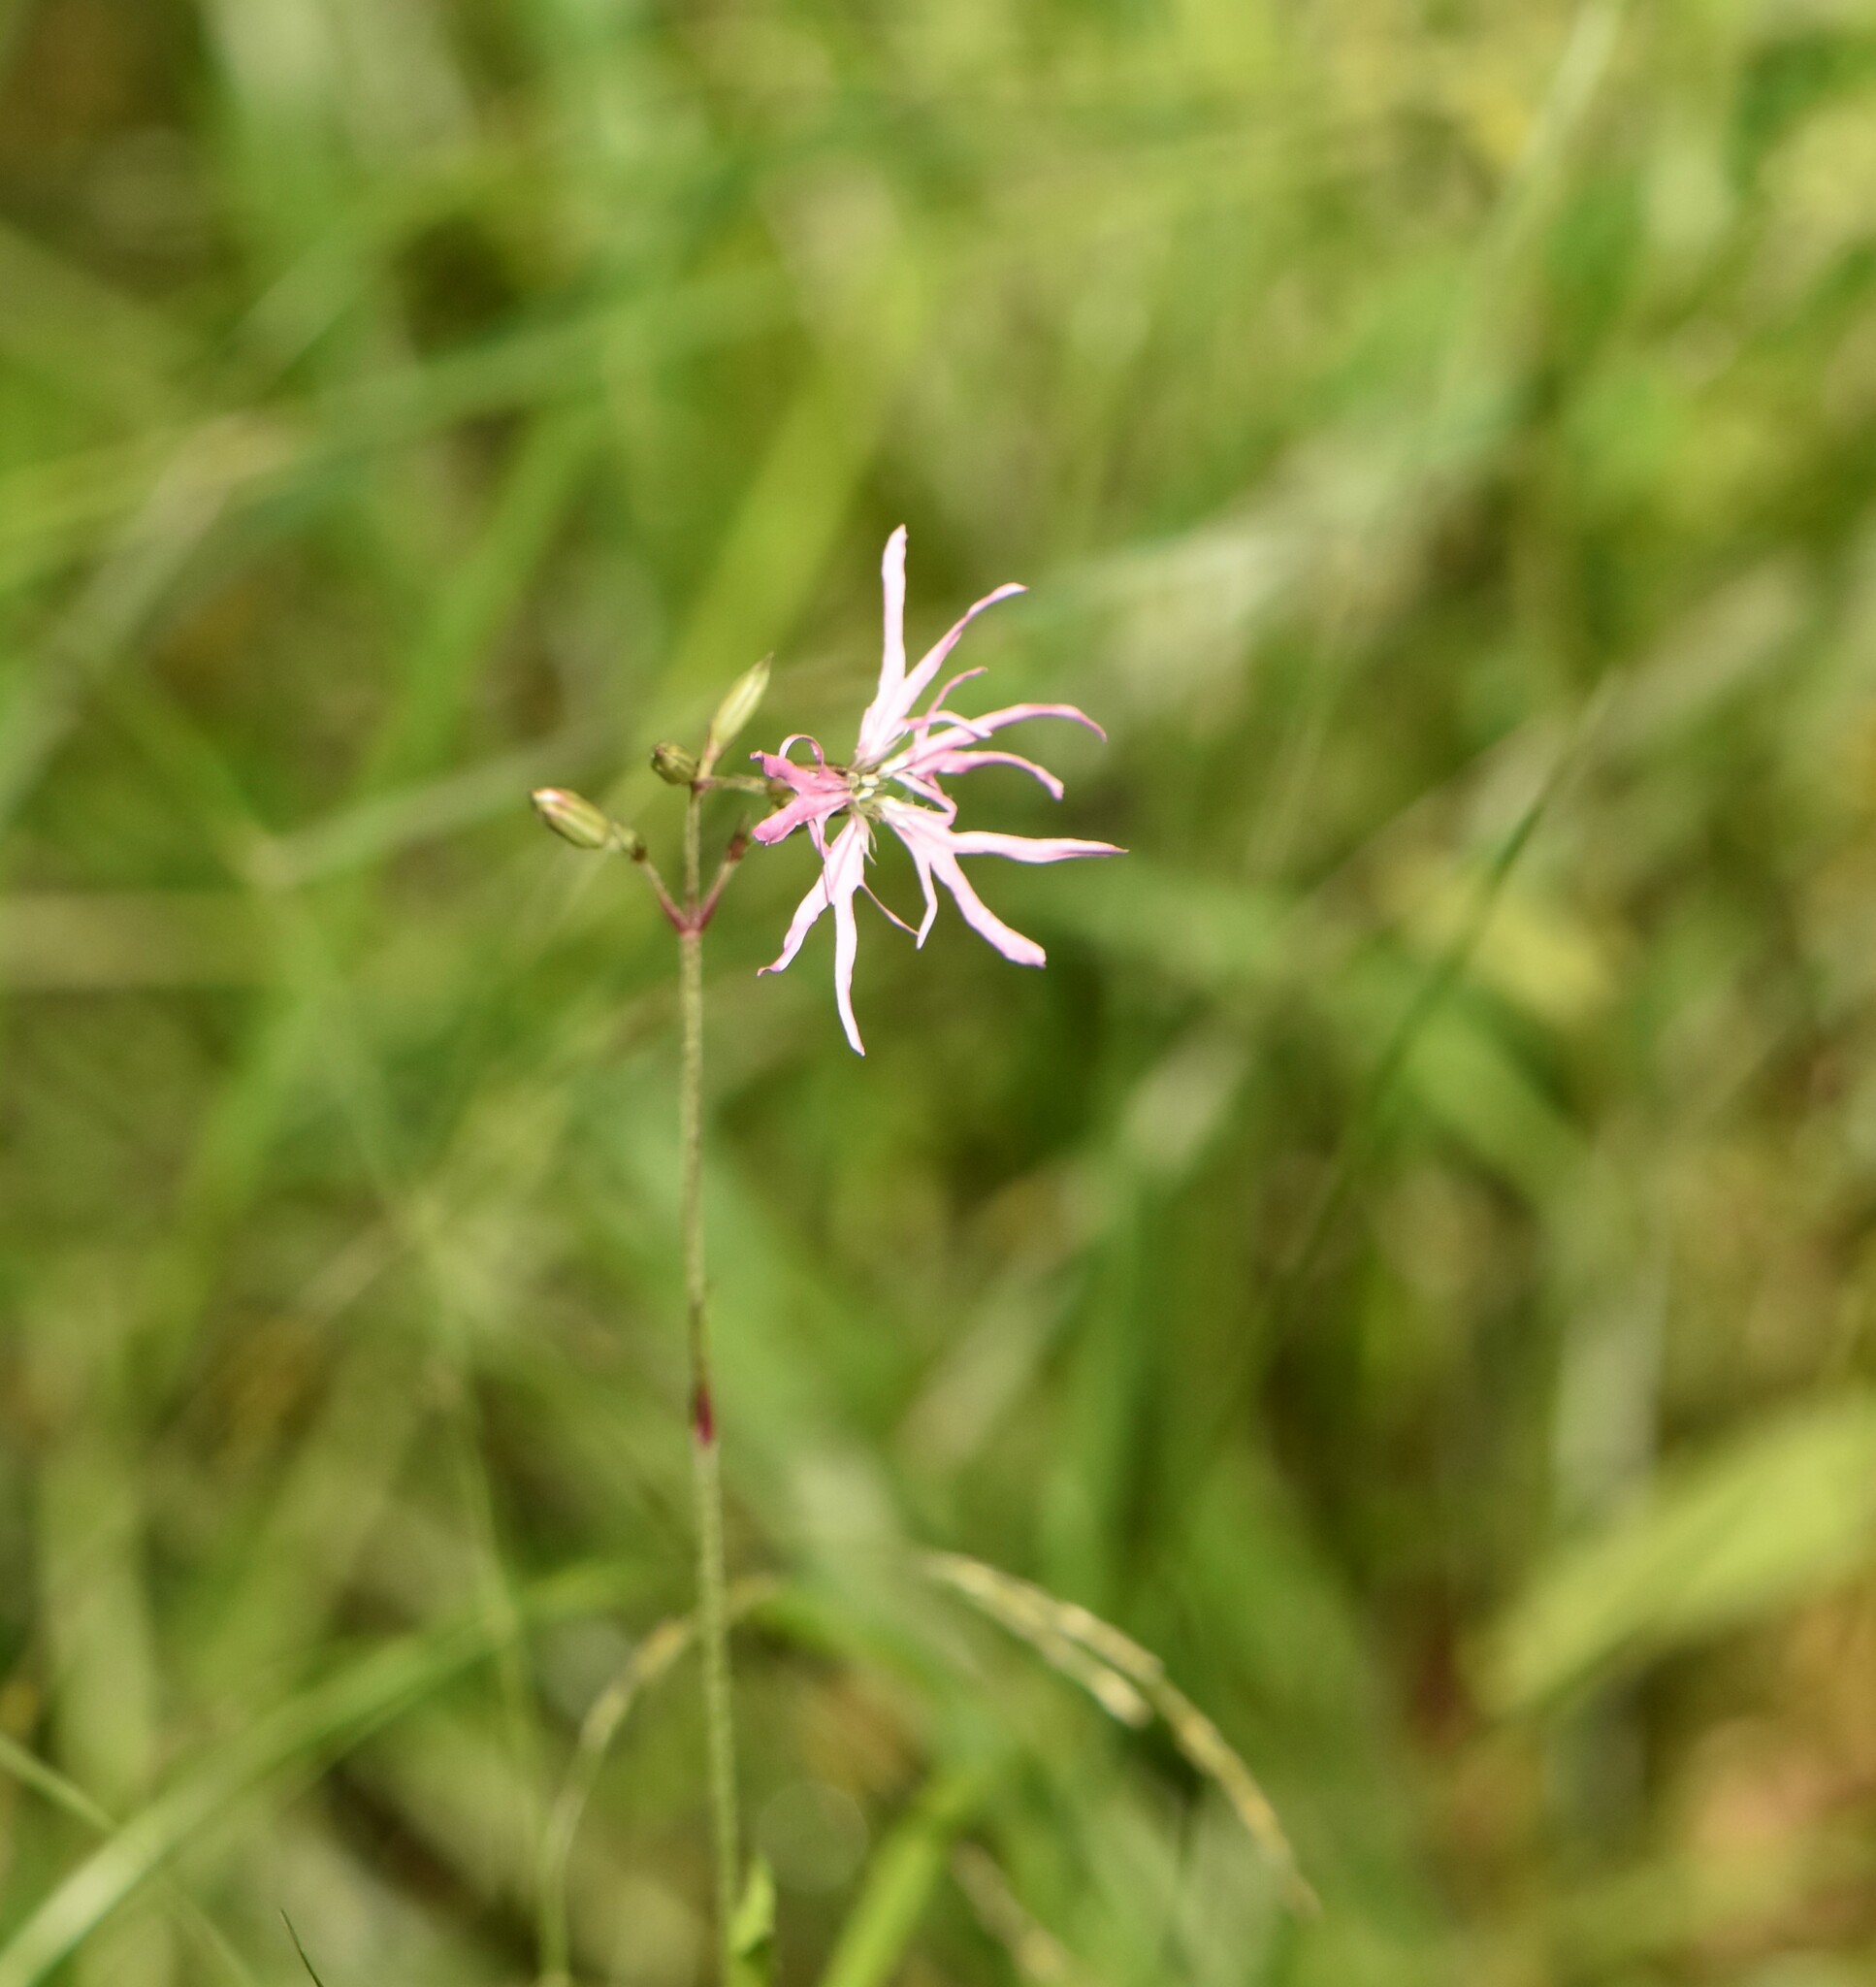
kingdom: Plantae
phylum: Tracheophyta
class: Magnoliopsida
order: Caryophyllales
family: Caryophyllaceae
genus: Silene
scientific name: Silene flos-cuculi
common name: Ragged-robin
